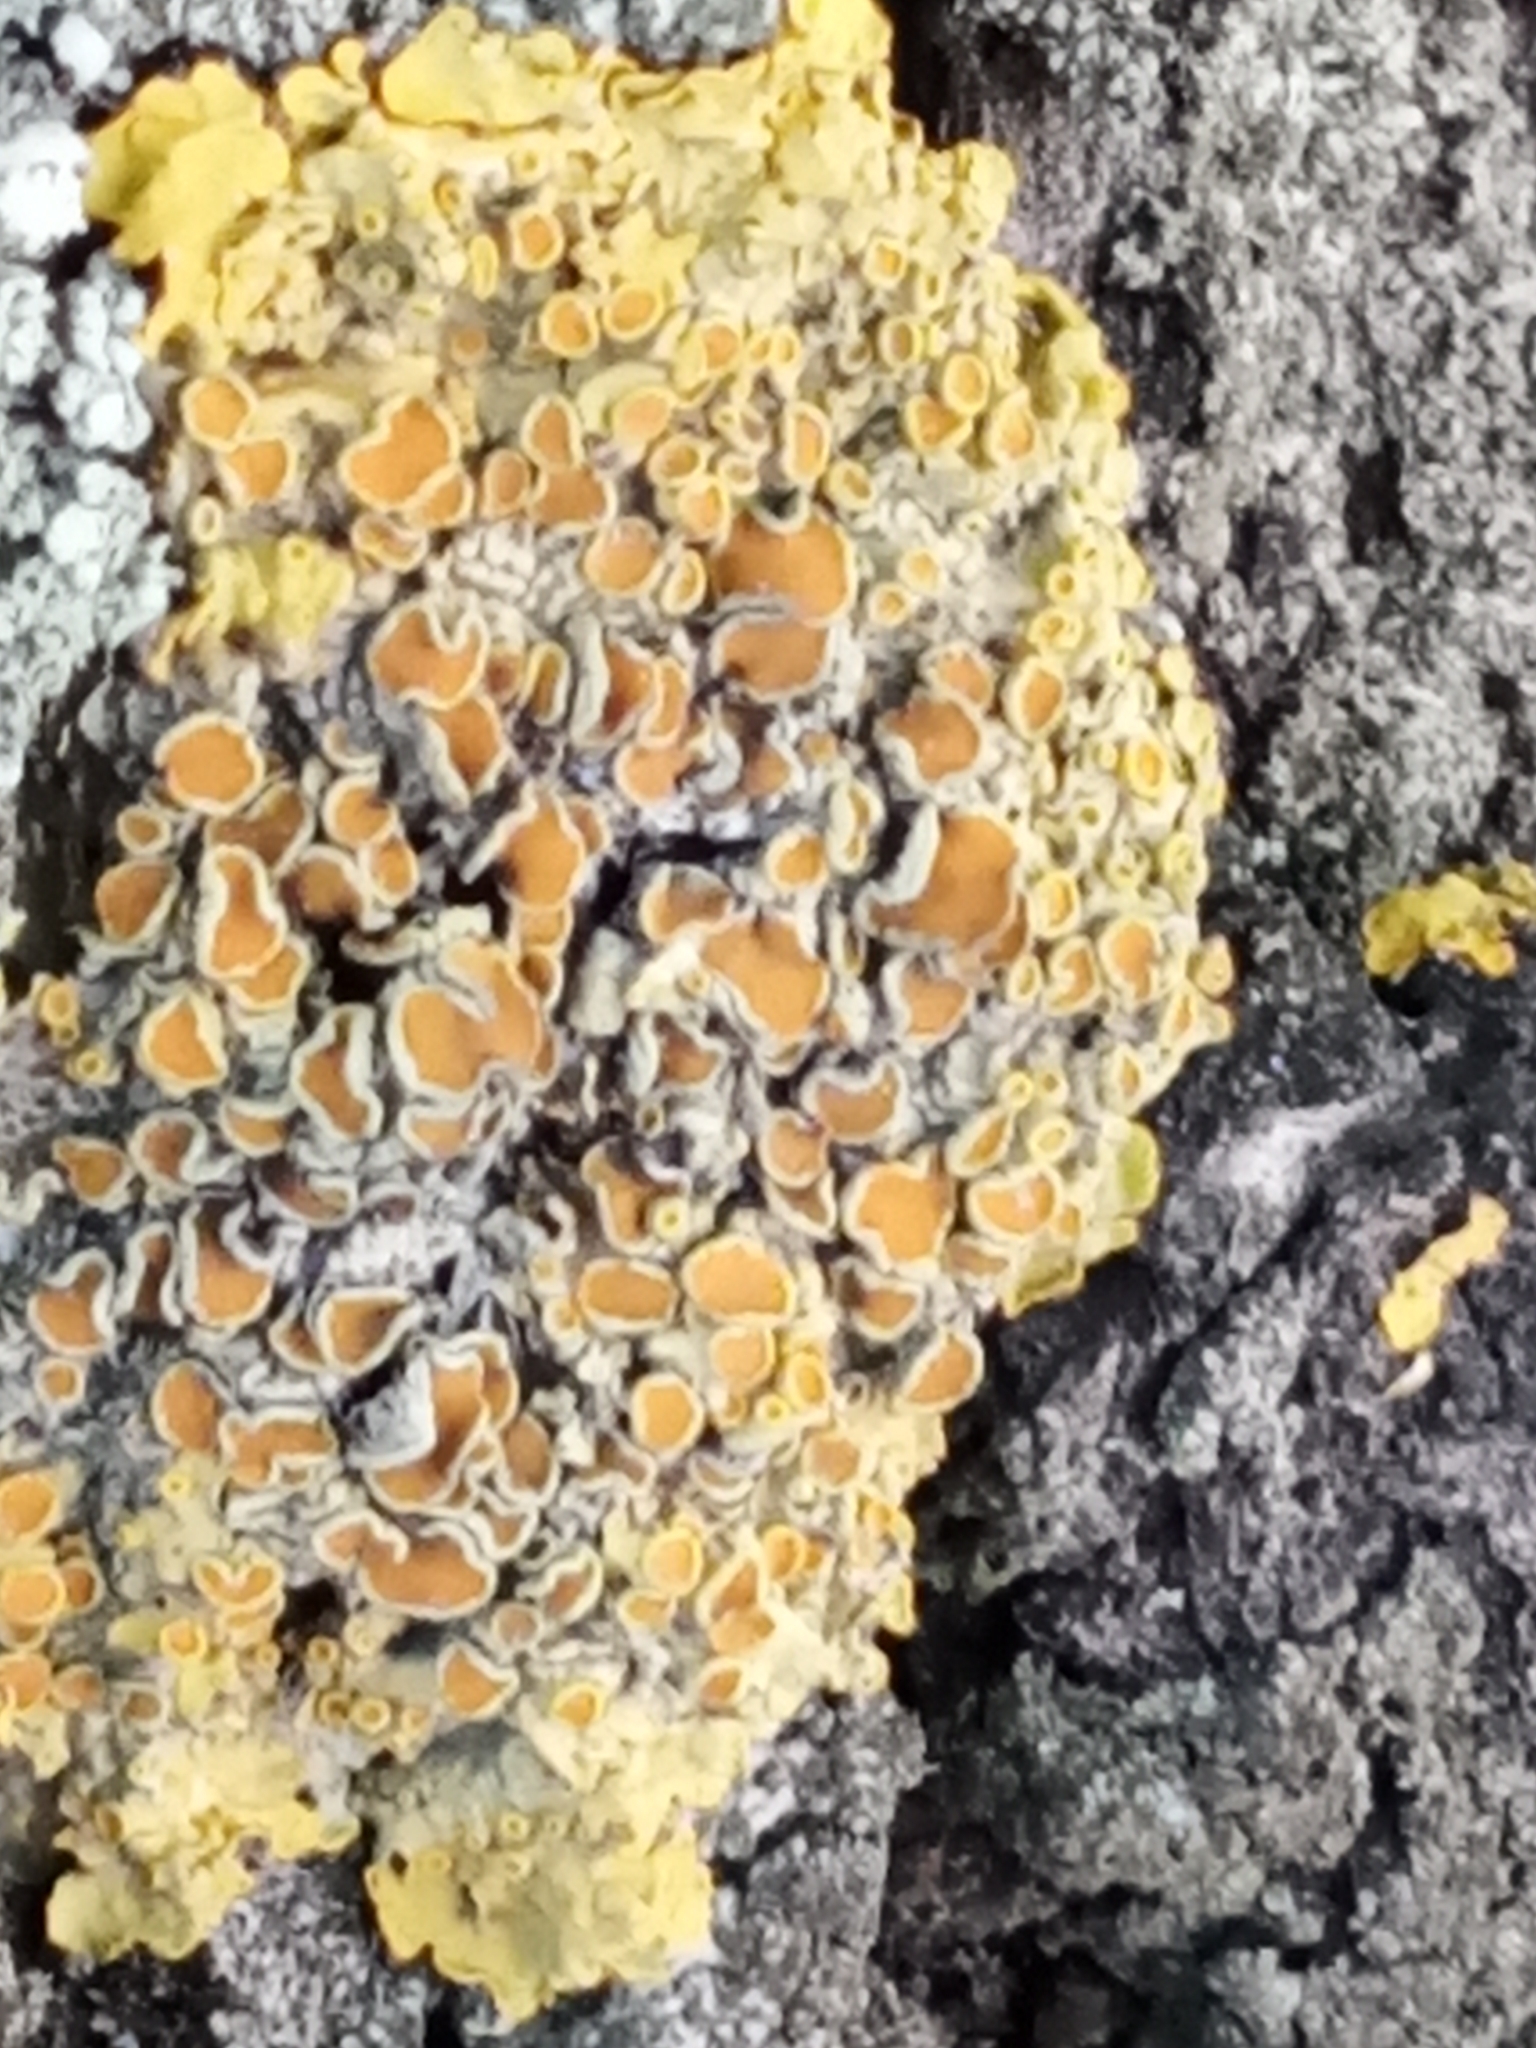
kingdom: Fungi
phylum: Ascomycota
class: Lecanoromycetes
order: Teloschistales
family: Teloschistaceae
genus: Xanthoria
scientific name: Xanthoria parietina
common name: Common orange lichen
